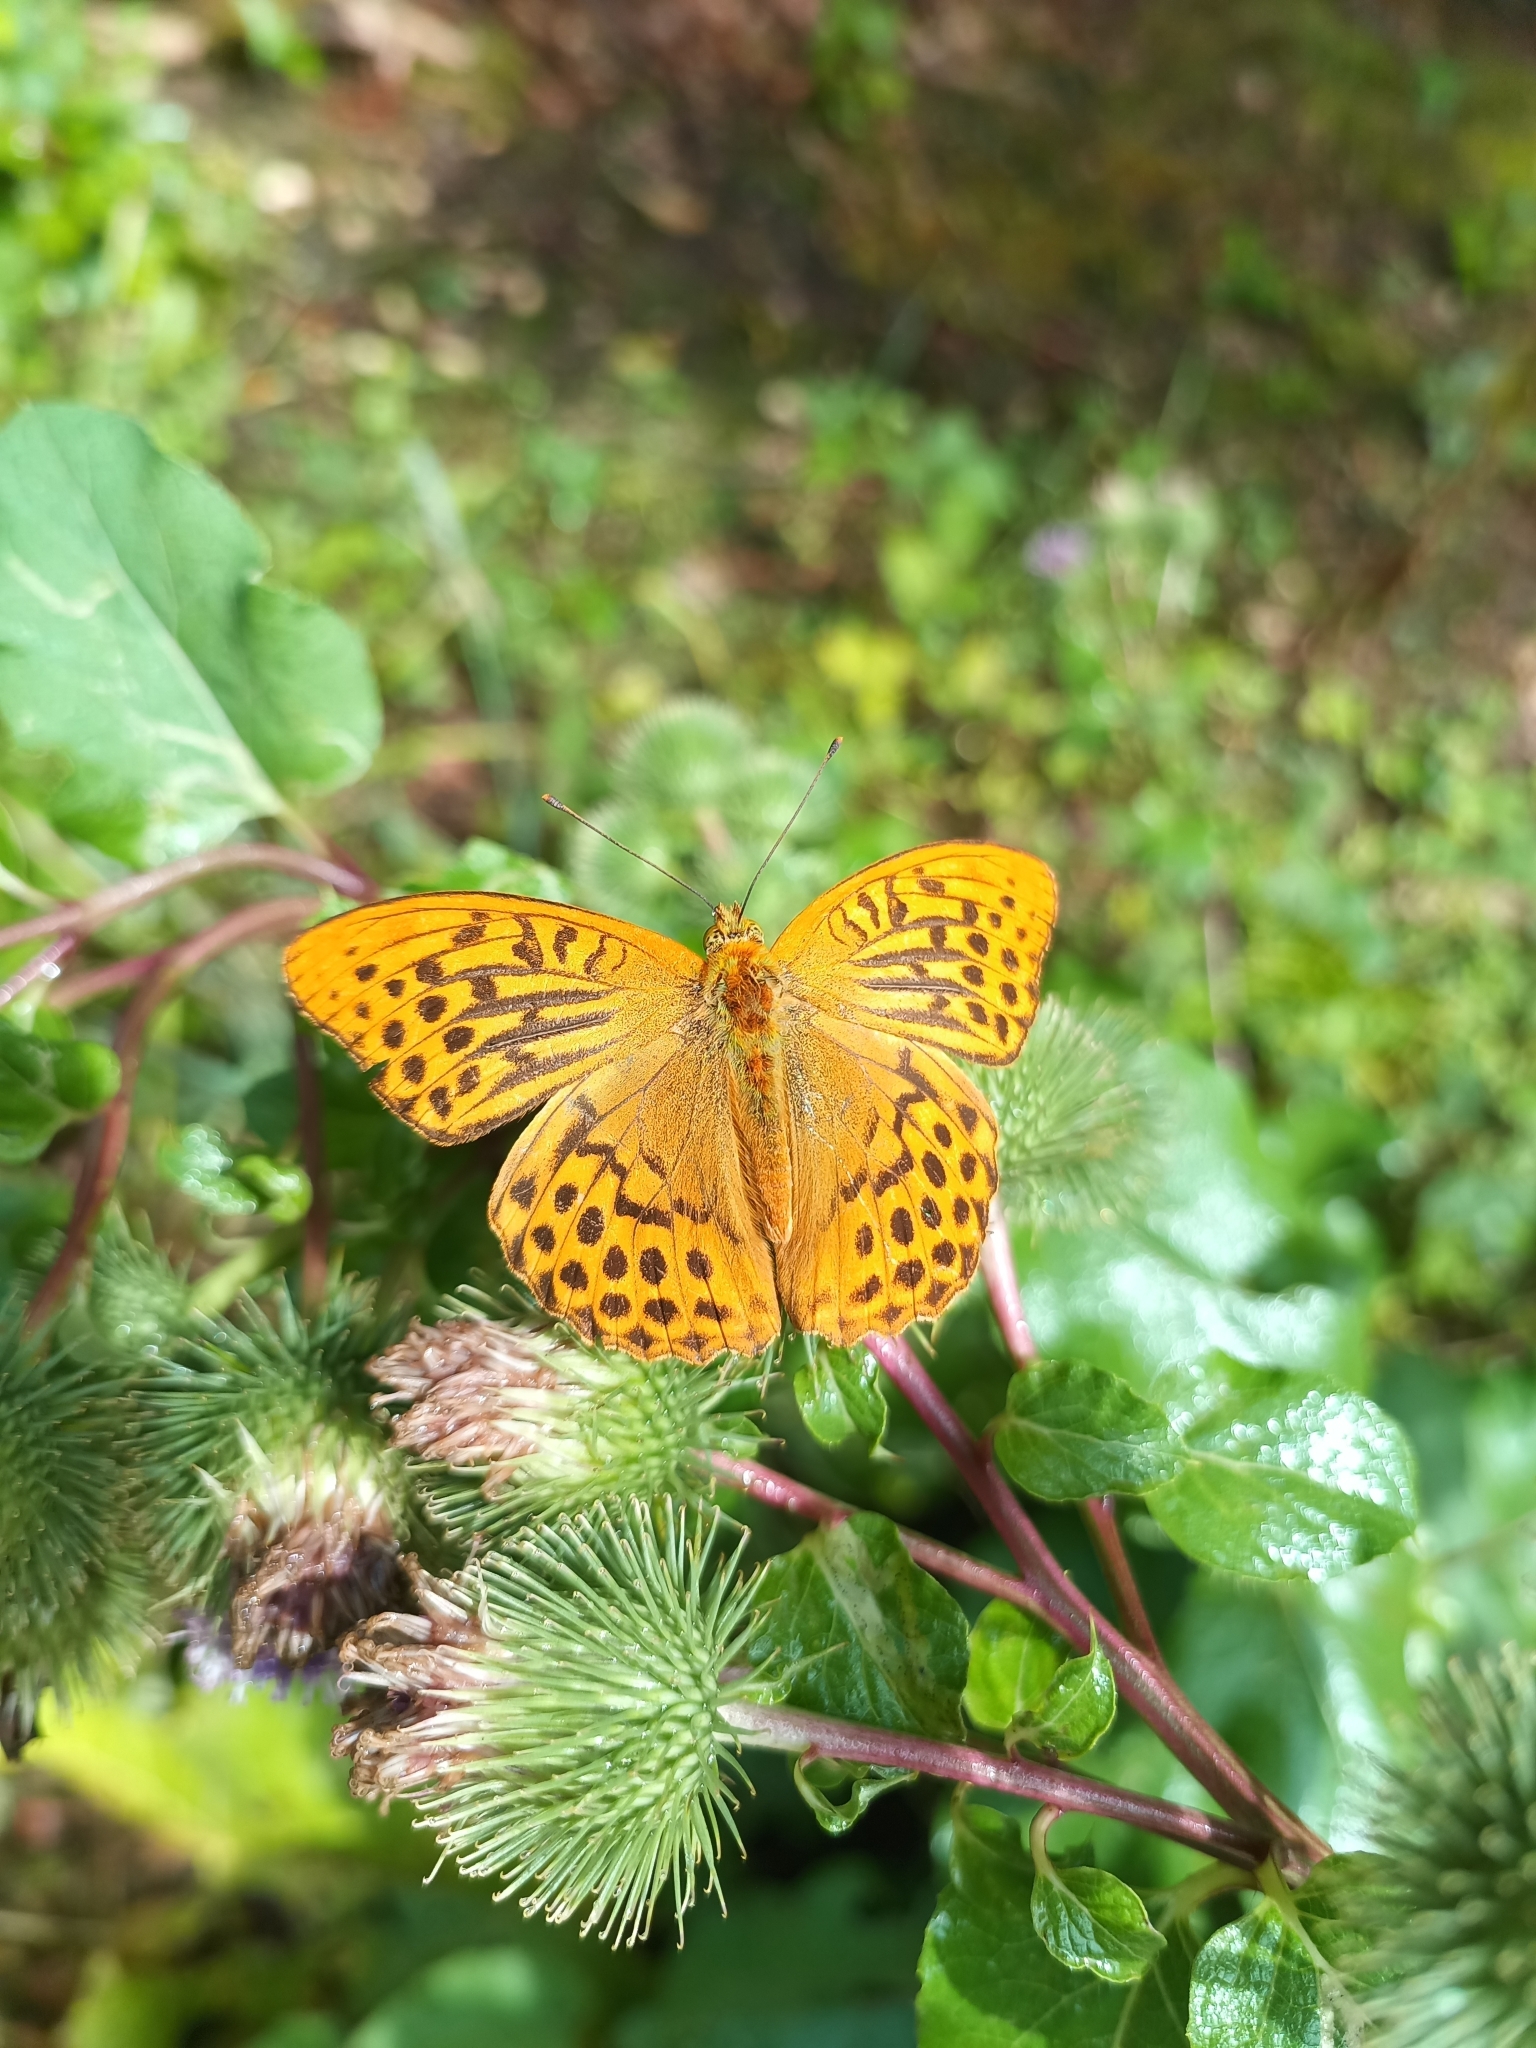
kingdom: Animalia
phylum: Arthropoda
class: Insecta
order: Lepidoptera
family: Nymphalidae
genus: Argynnis
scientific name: Argynnis paphia
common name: Silver-washed fritillary
